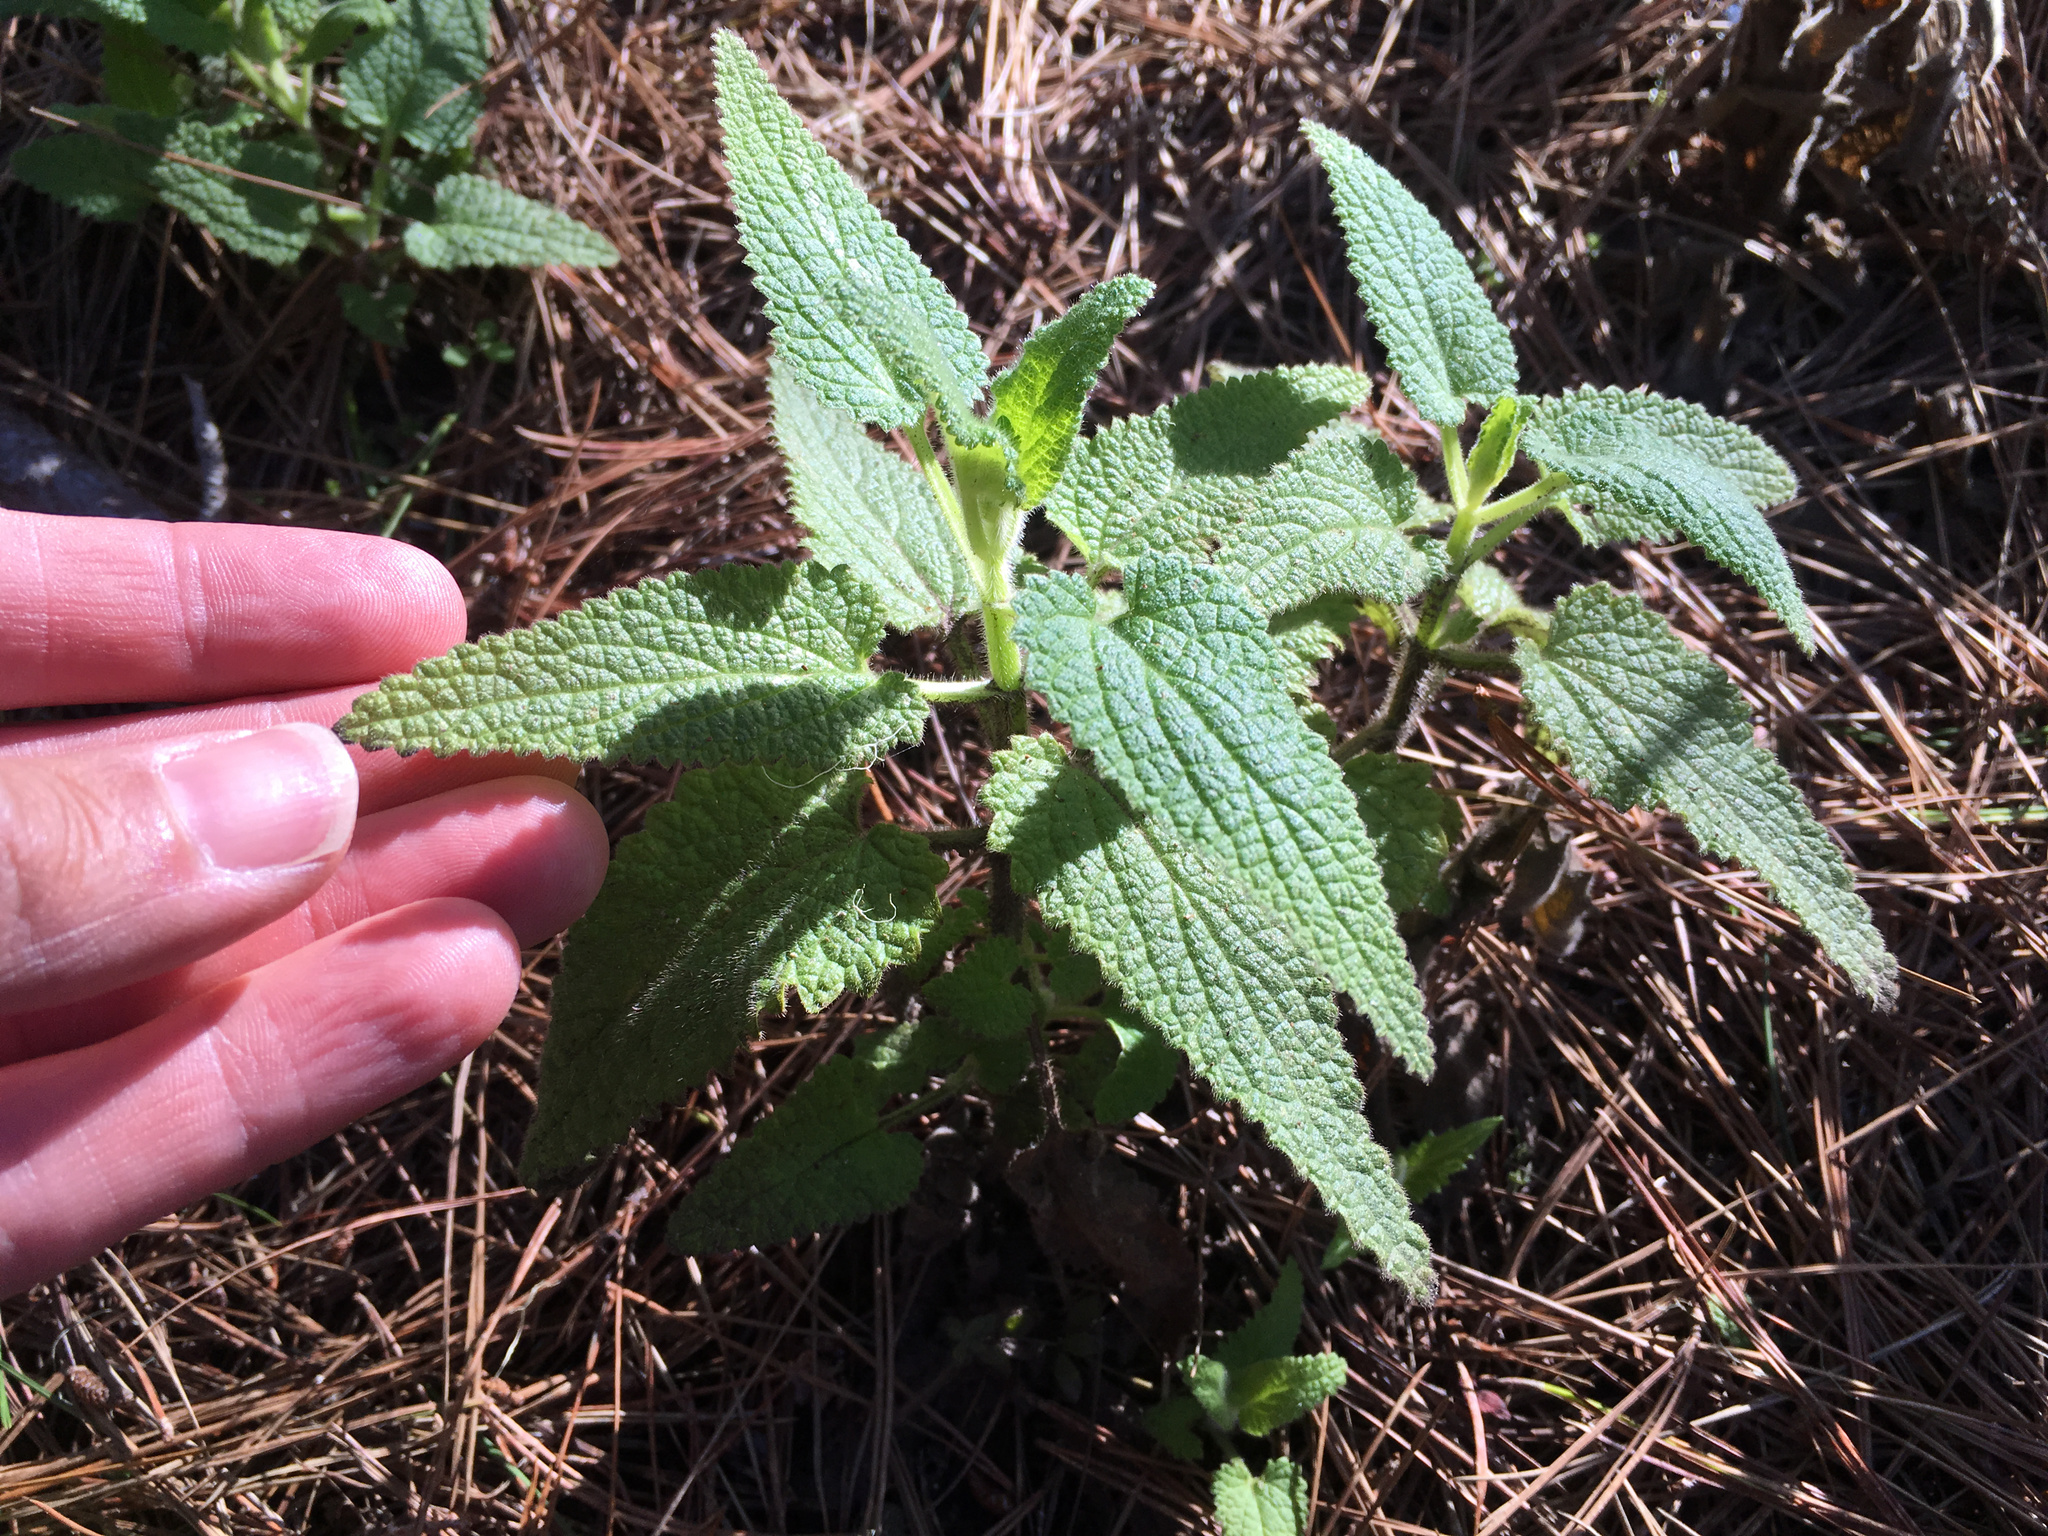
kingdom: Plantae
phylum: Tracheophyta
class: Magnoliopsida
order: Lamiales
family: Lamiaceae
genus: Stachys
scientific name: Stachys bullata
